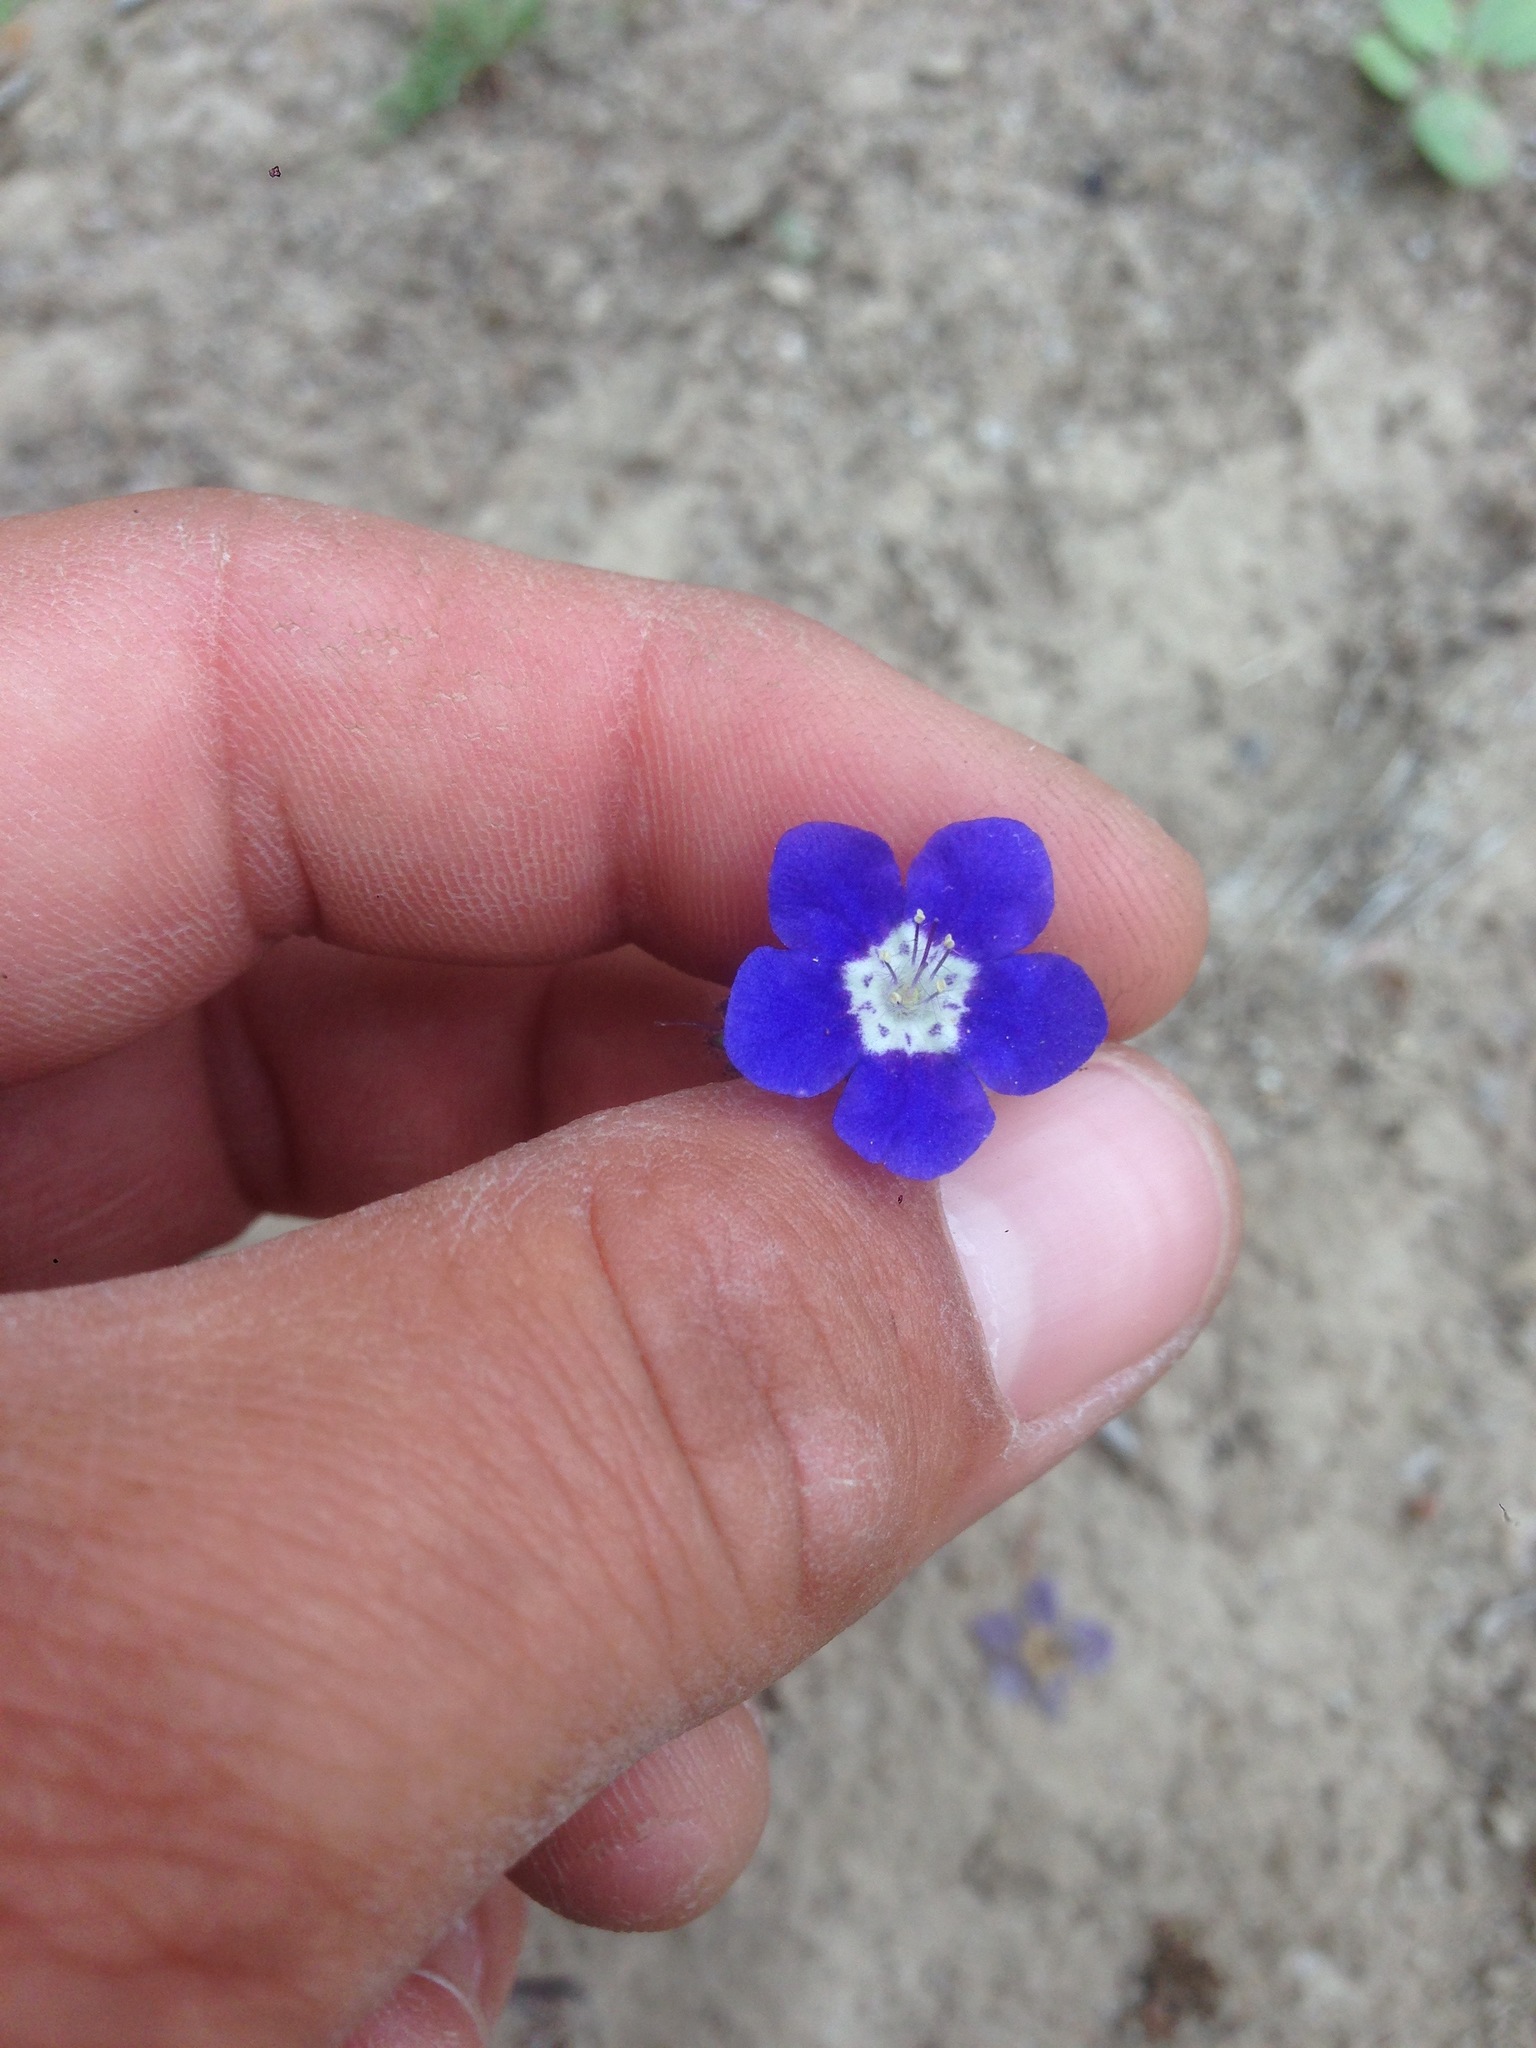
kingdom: Plantae
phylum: Tracheophyta
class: Magnoliopsida
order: Boraginales
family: Hydrophyllaceae
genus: Phacelia
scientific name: Phacelia viscida
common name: Sticky phacelia
